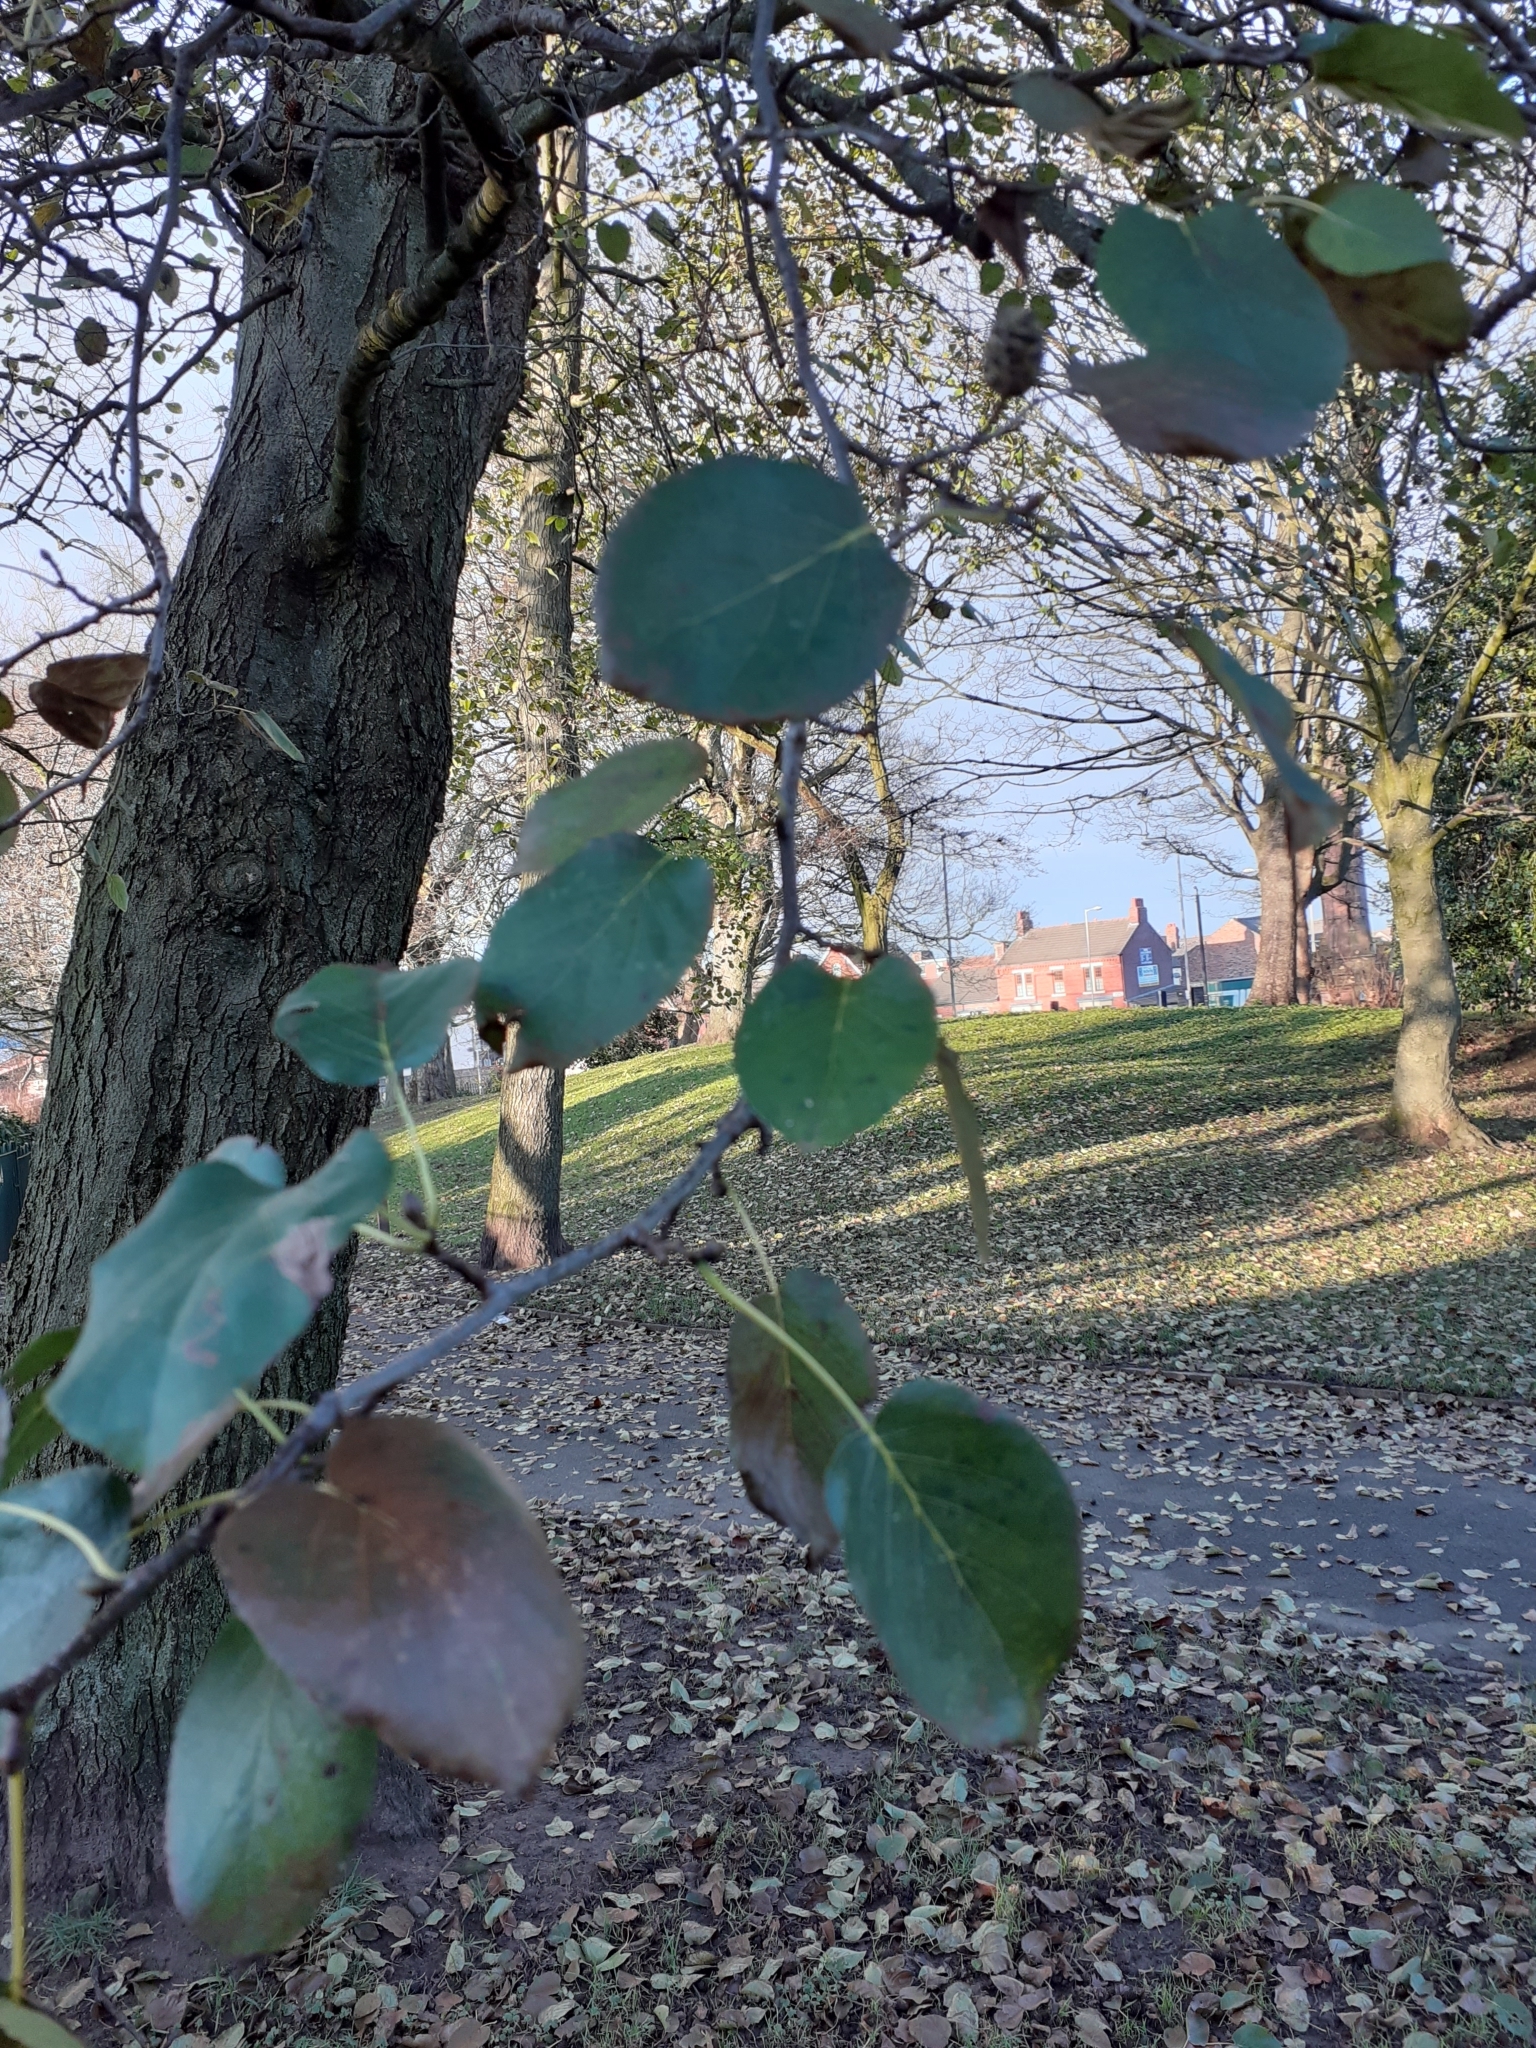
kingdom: Plantae
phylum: Tracheophyta
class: Magnoliopsida
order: Fagales
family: Betulaceae
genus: Alnus
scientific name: Alnus cordata
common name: Italian alder
